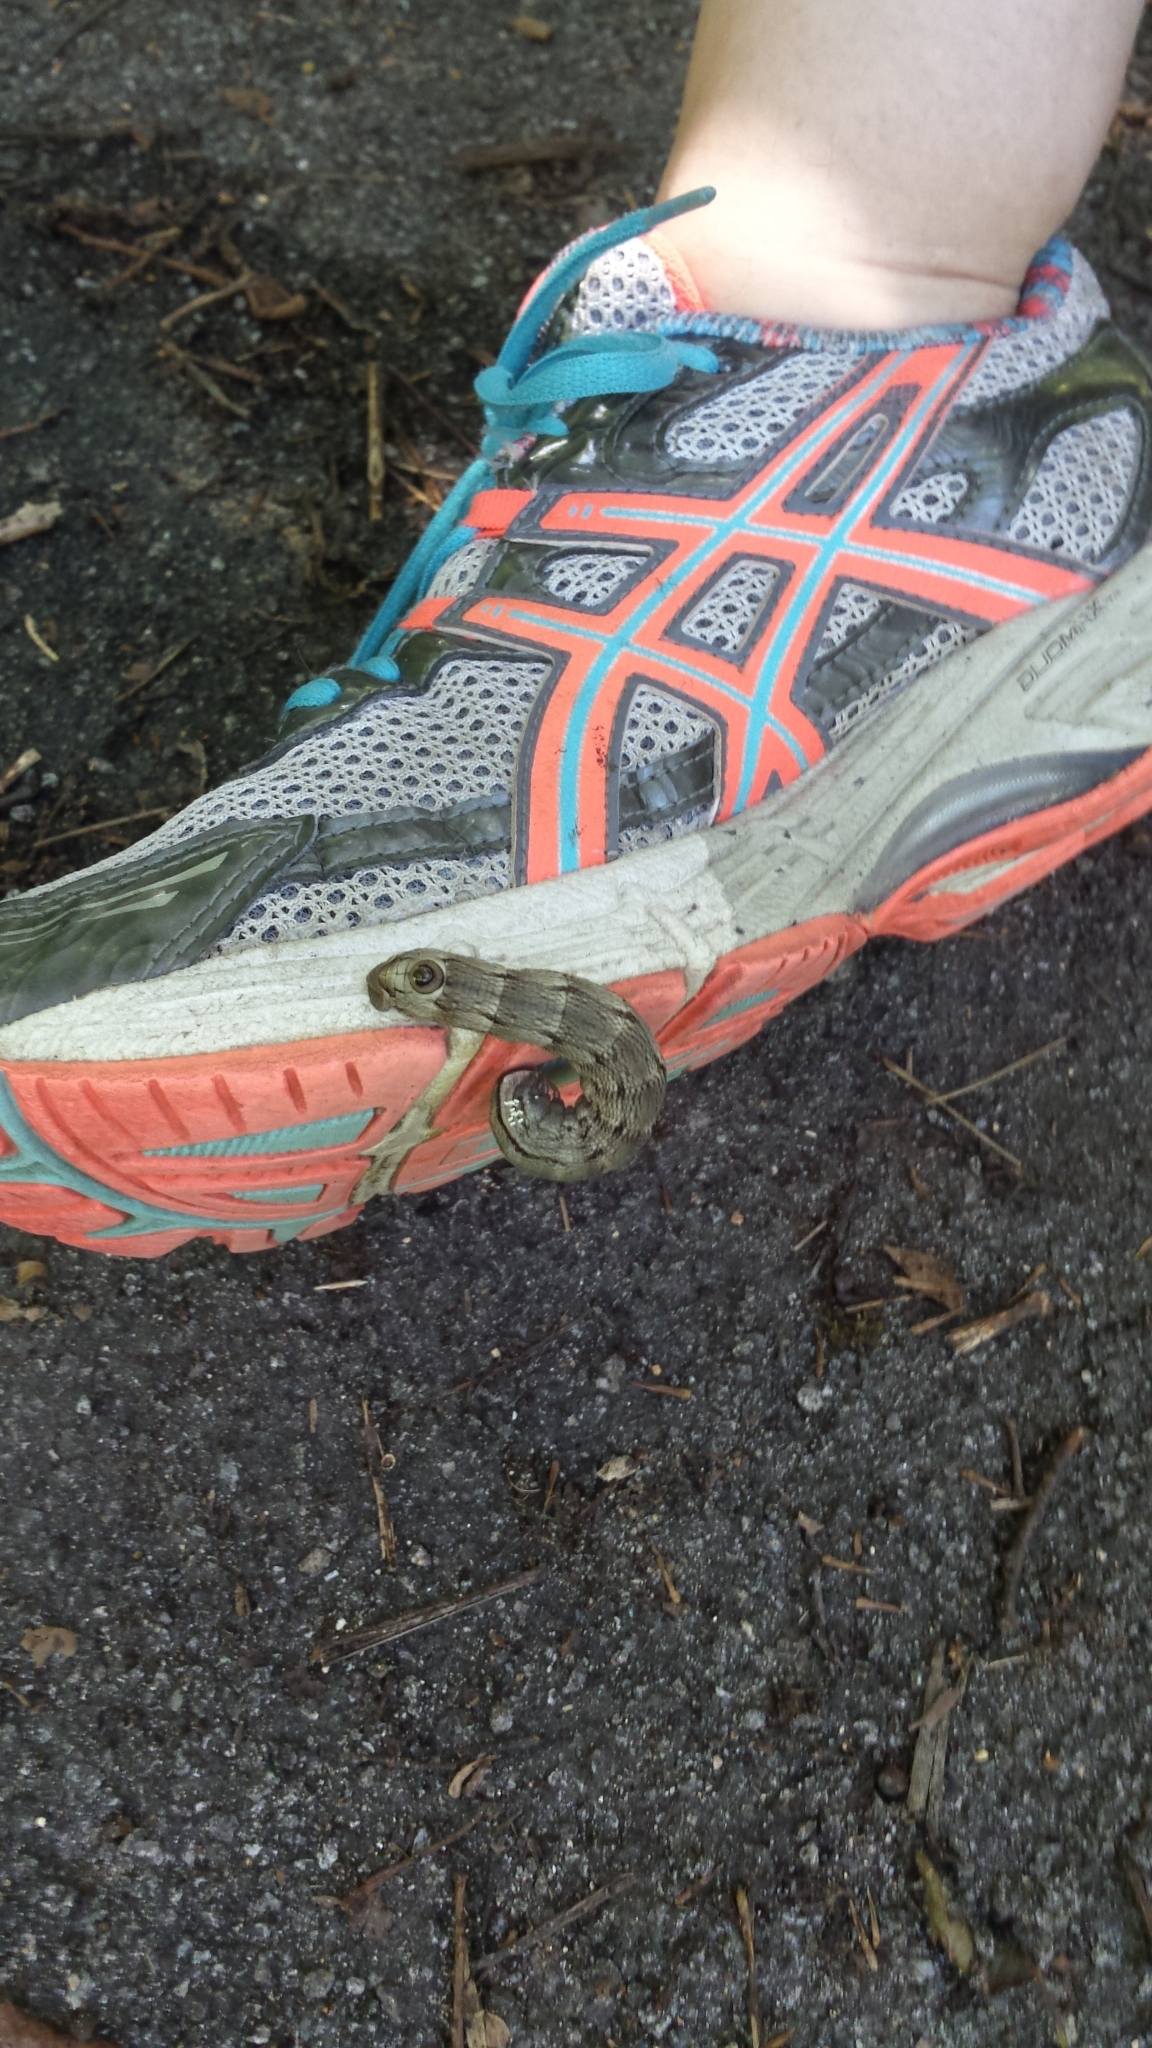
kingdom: Animalia
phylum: Arthropoda
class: Insecta
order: Lepidoptera
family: Sphingidae
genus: Sphecodina
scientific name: Sphecodina abbottii
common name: Abbott's sphinx
